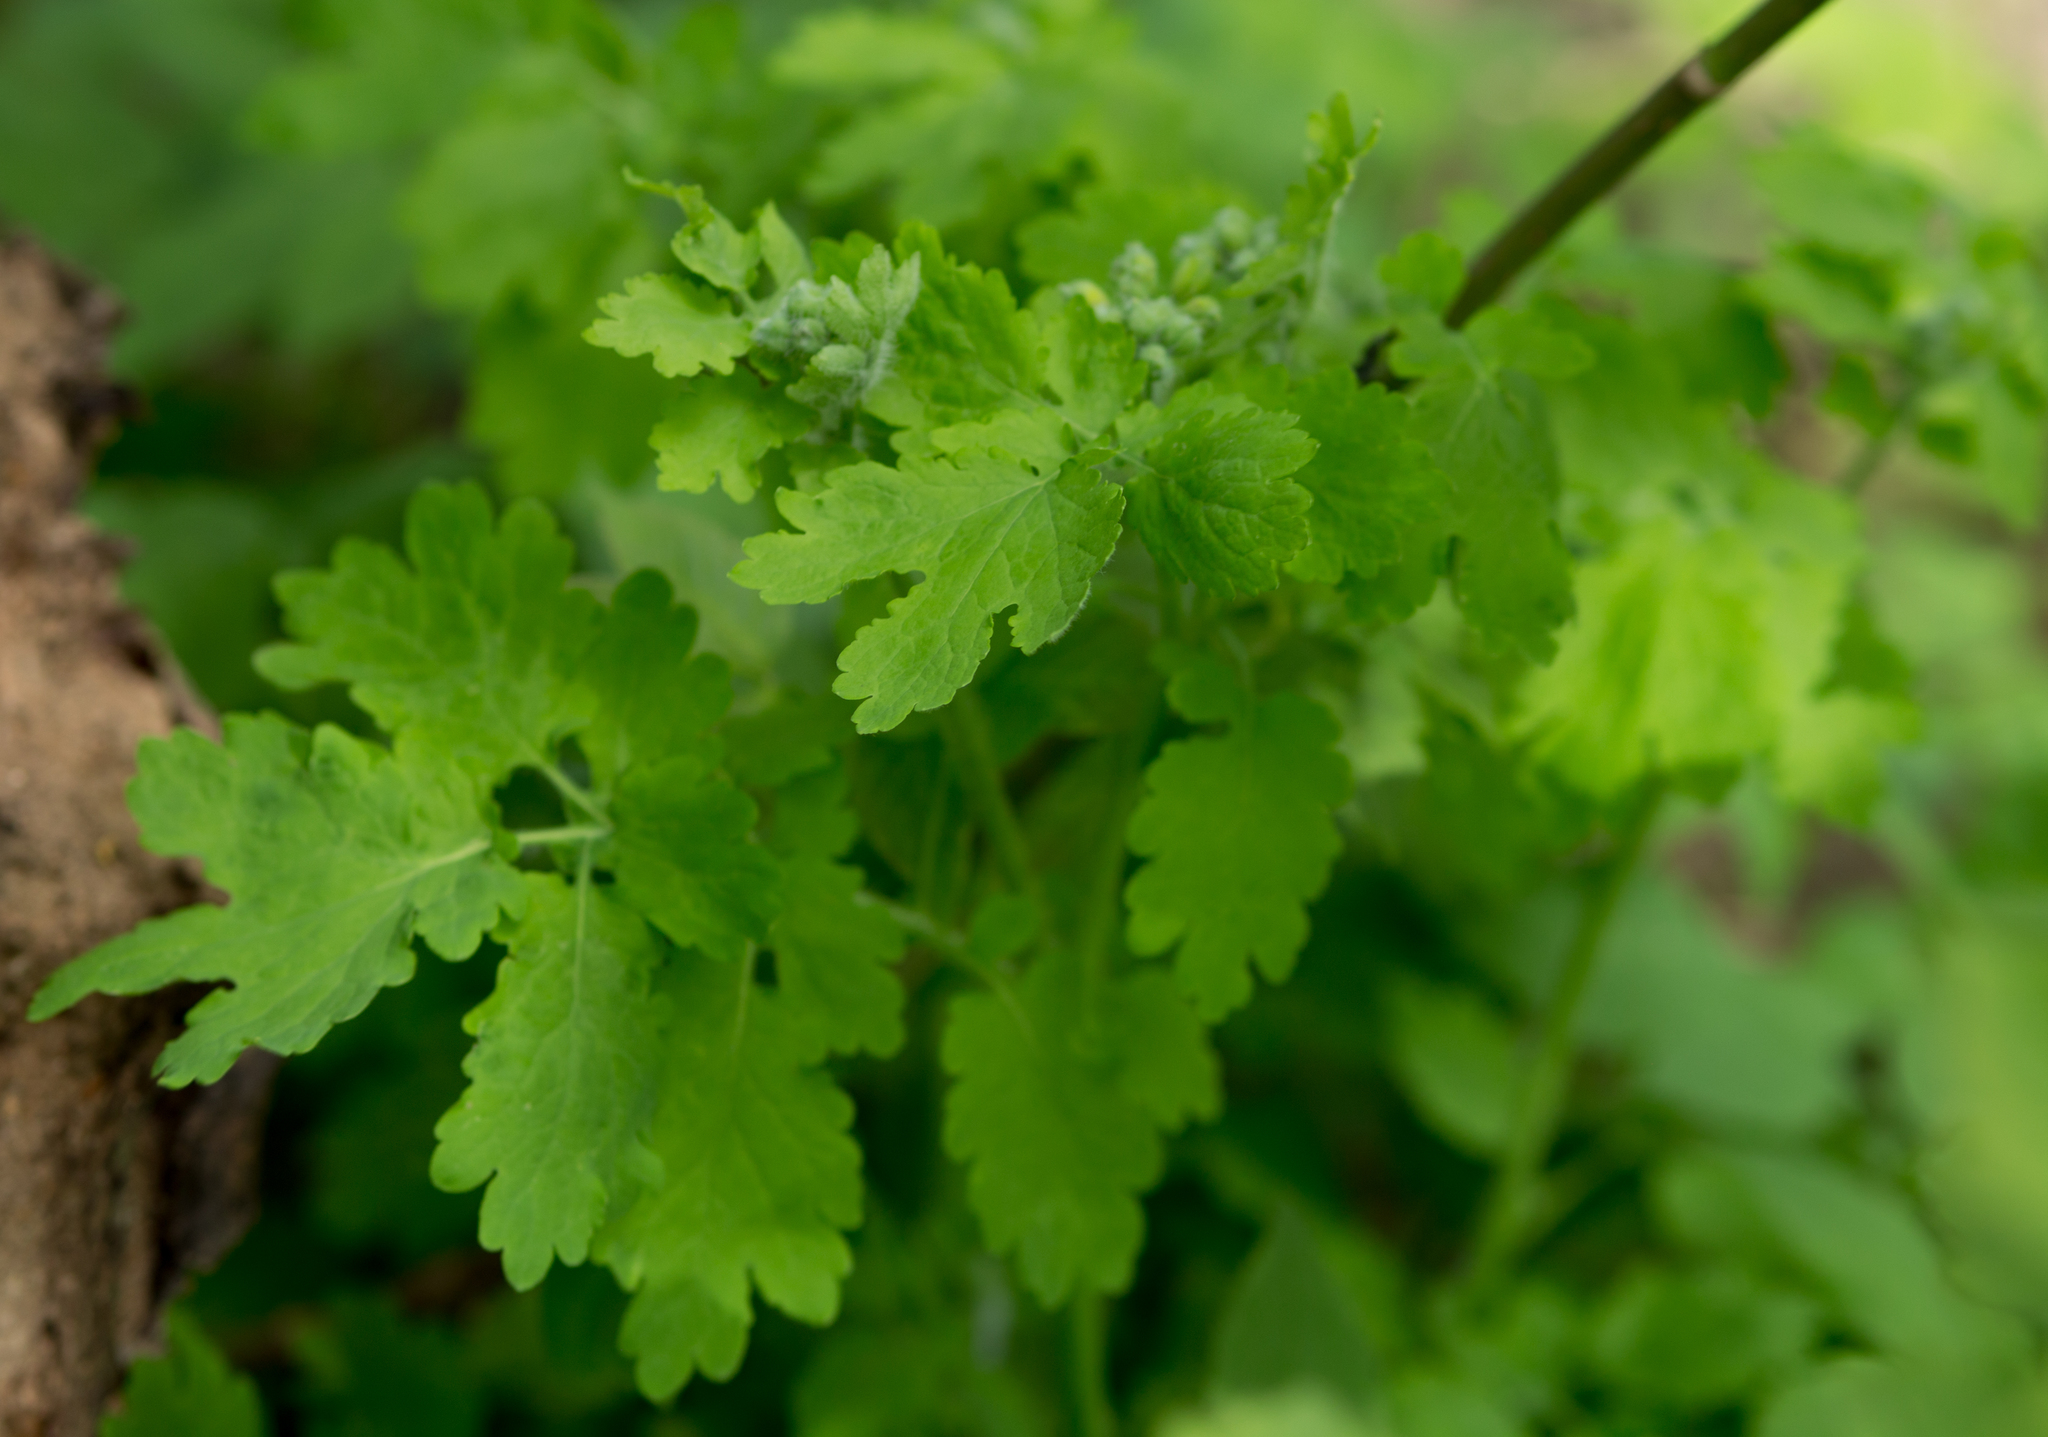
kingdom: Plantae
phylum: Tracheophyta
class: Magnoliopsida
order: Ranunculales
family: Papaveraceae
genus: Chelidonium
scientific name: Chelidonium majus
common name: Greater celandine
